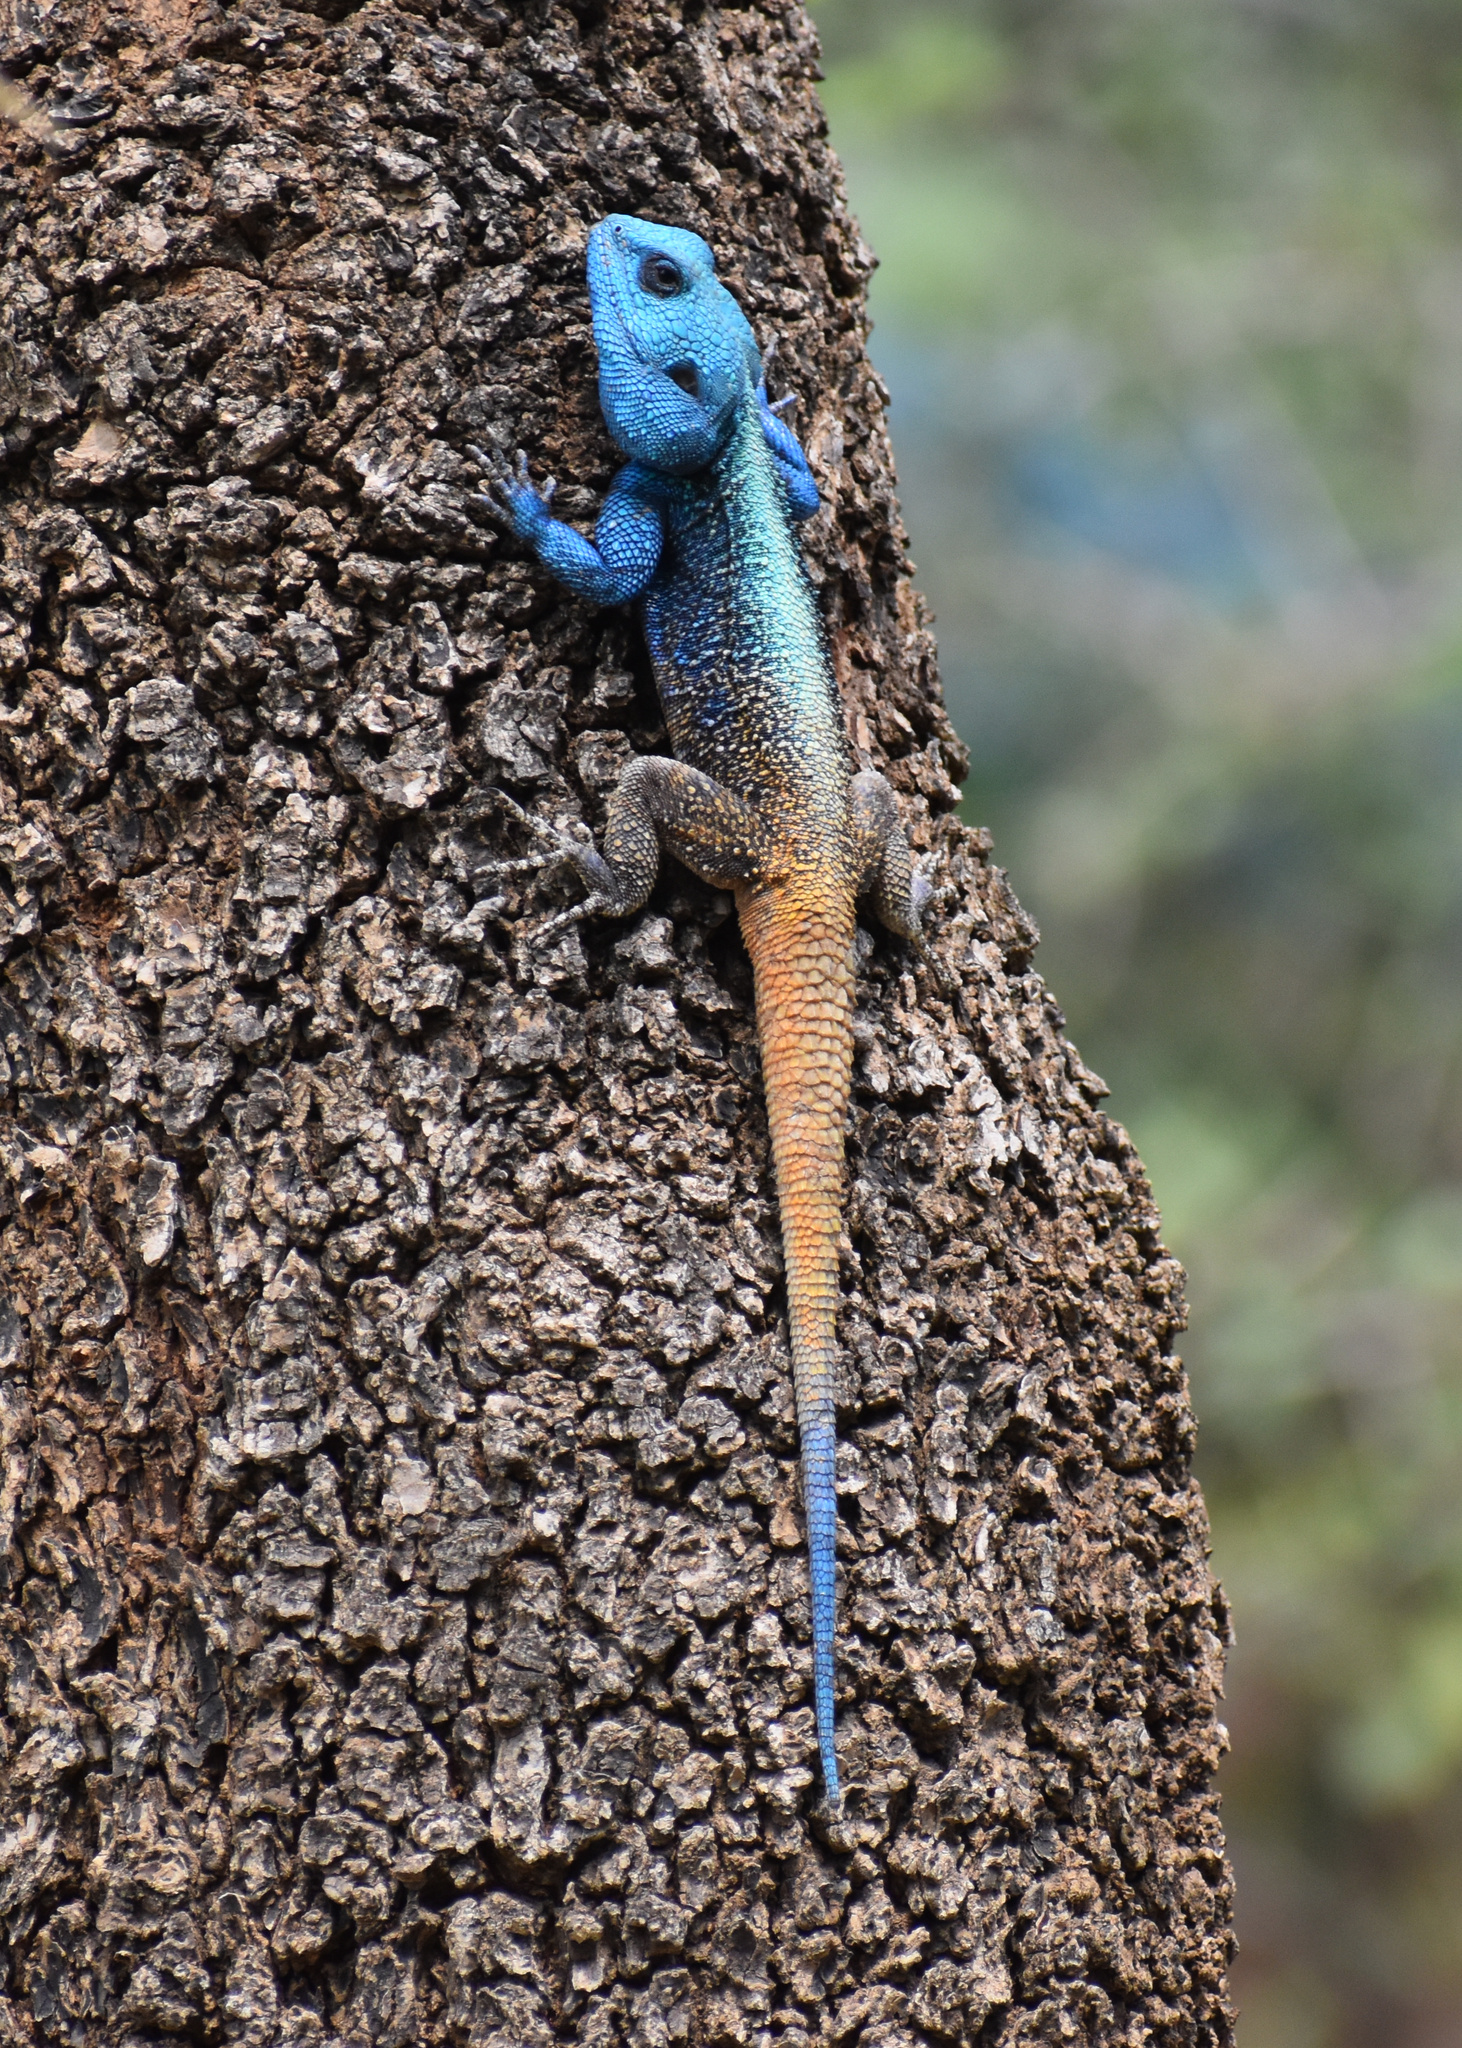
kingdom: Animalia
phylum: Chordata
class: Squamata
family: Agamidae
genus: Acanthocercus
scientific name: Acanthocercus atricollis
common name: Southern tree agama
